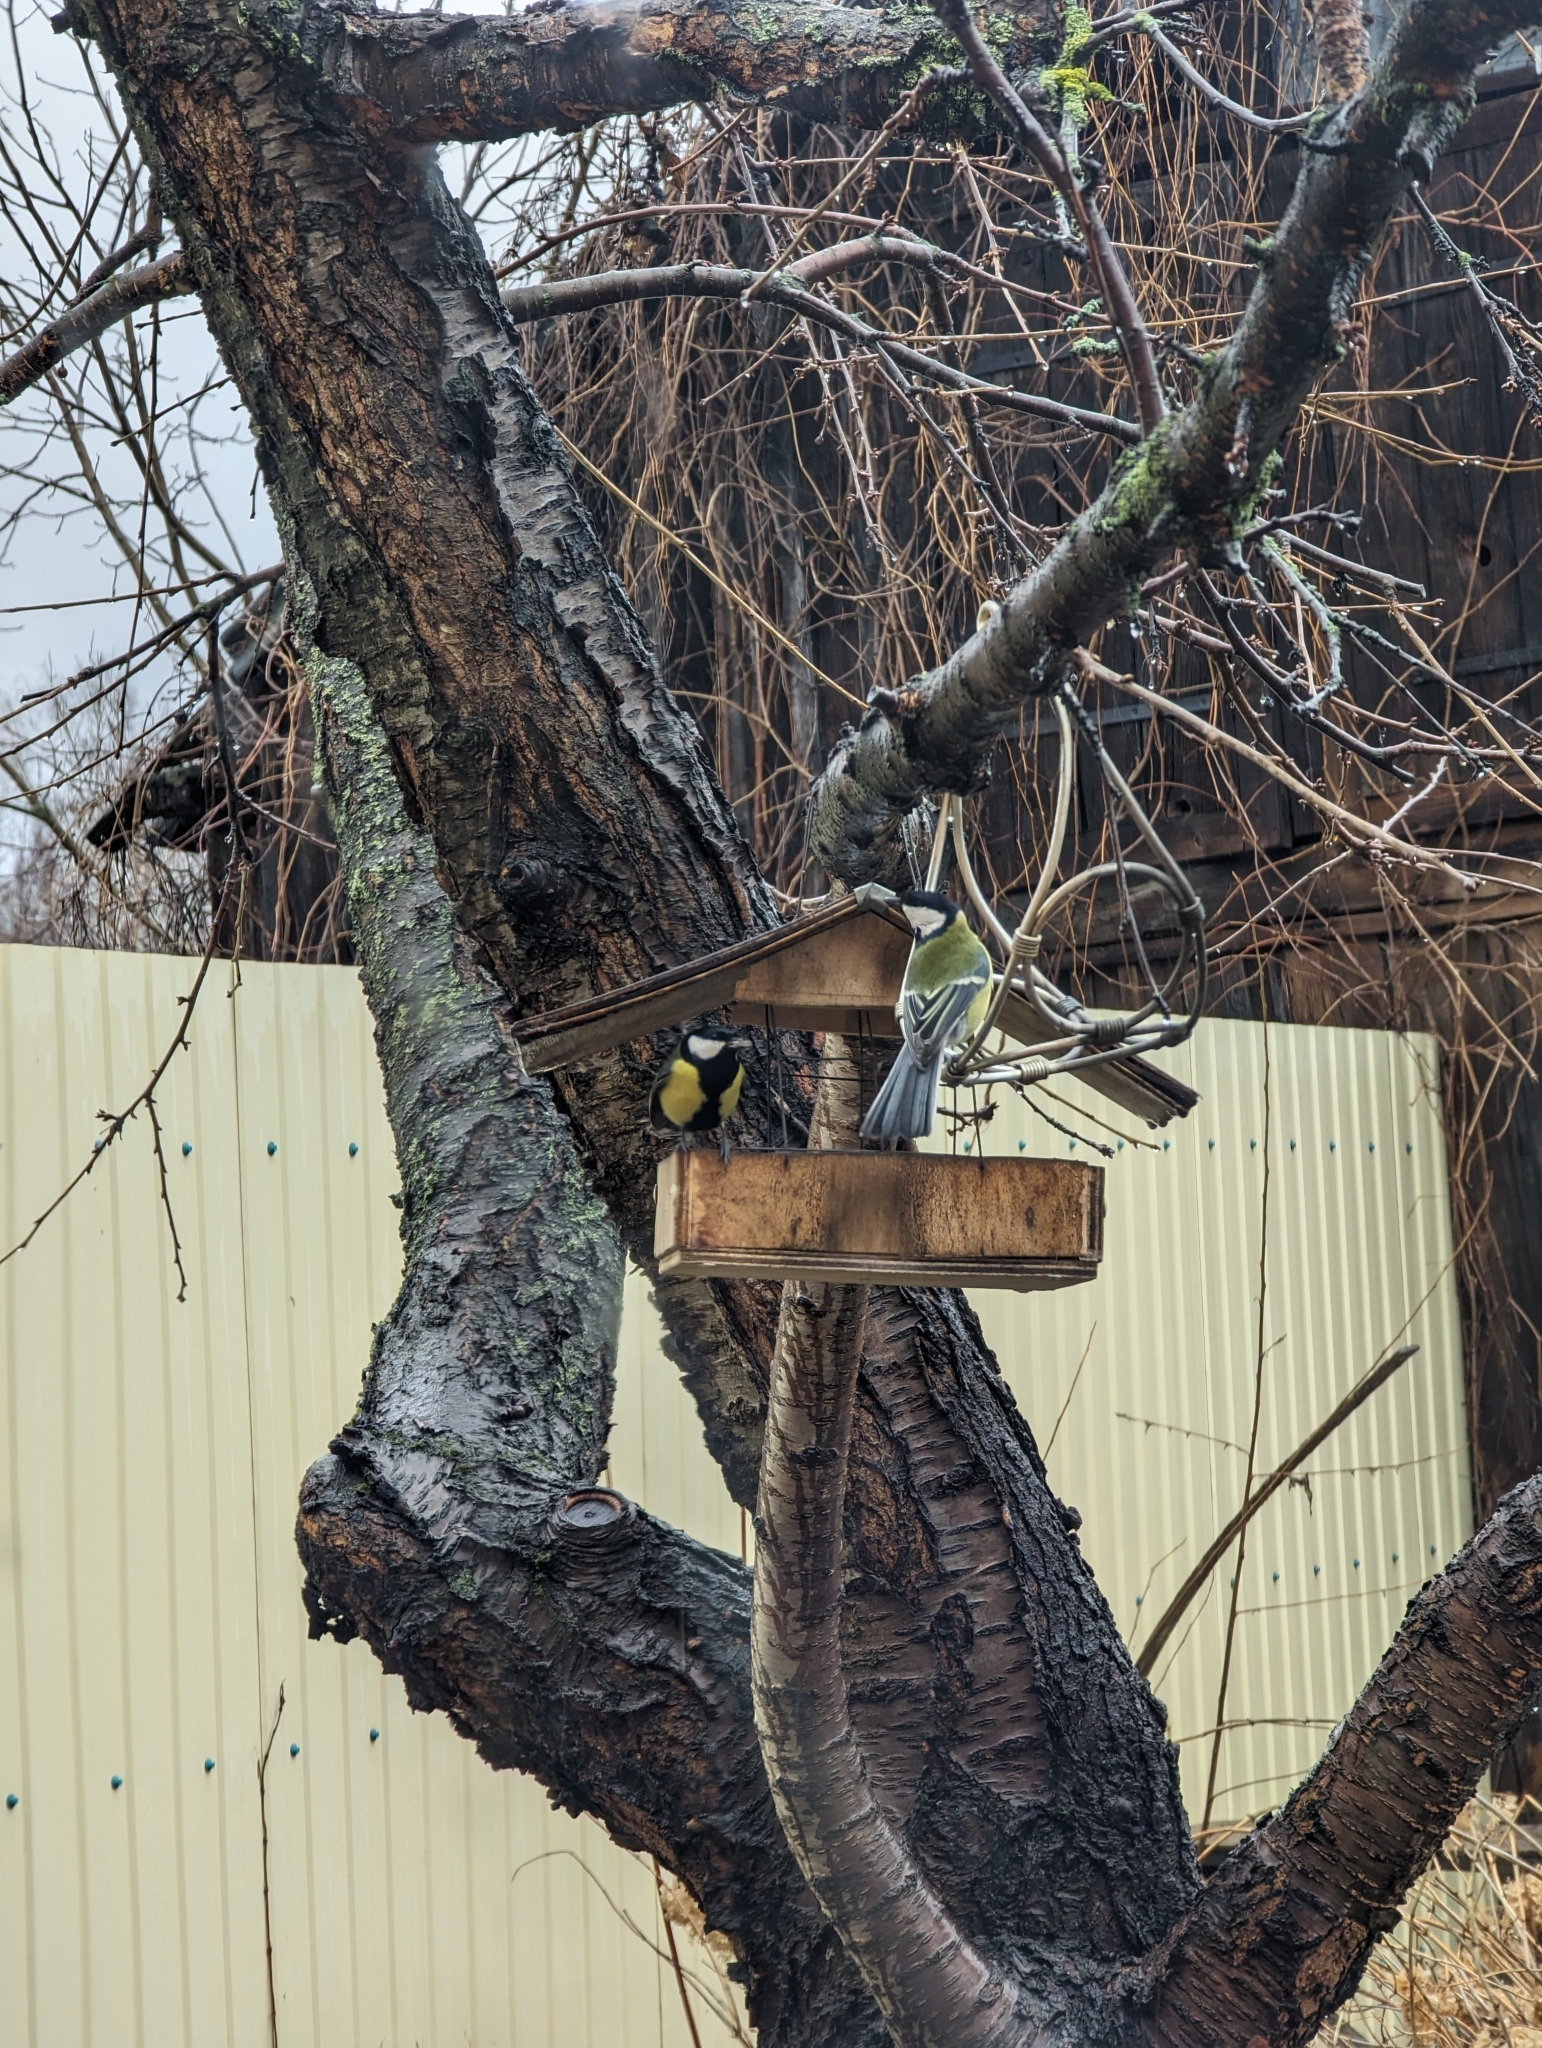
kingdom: Animalia
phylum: Chordata
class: Aves
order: Passeriformes
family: Paridae
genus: Parus
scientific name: Parus major
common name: Great tit
